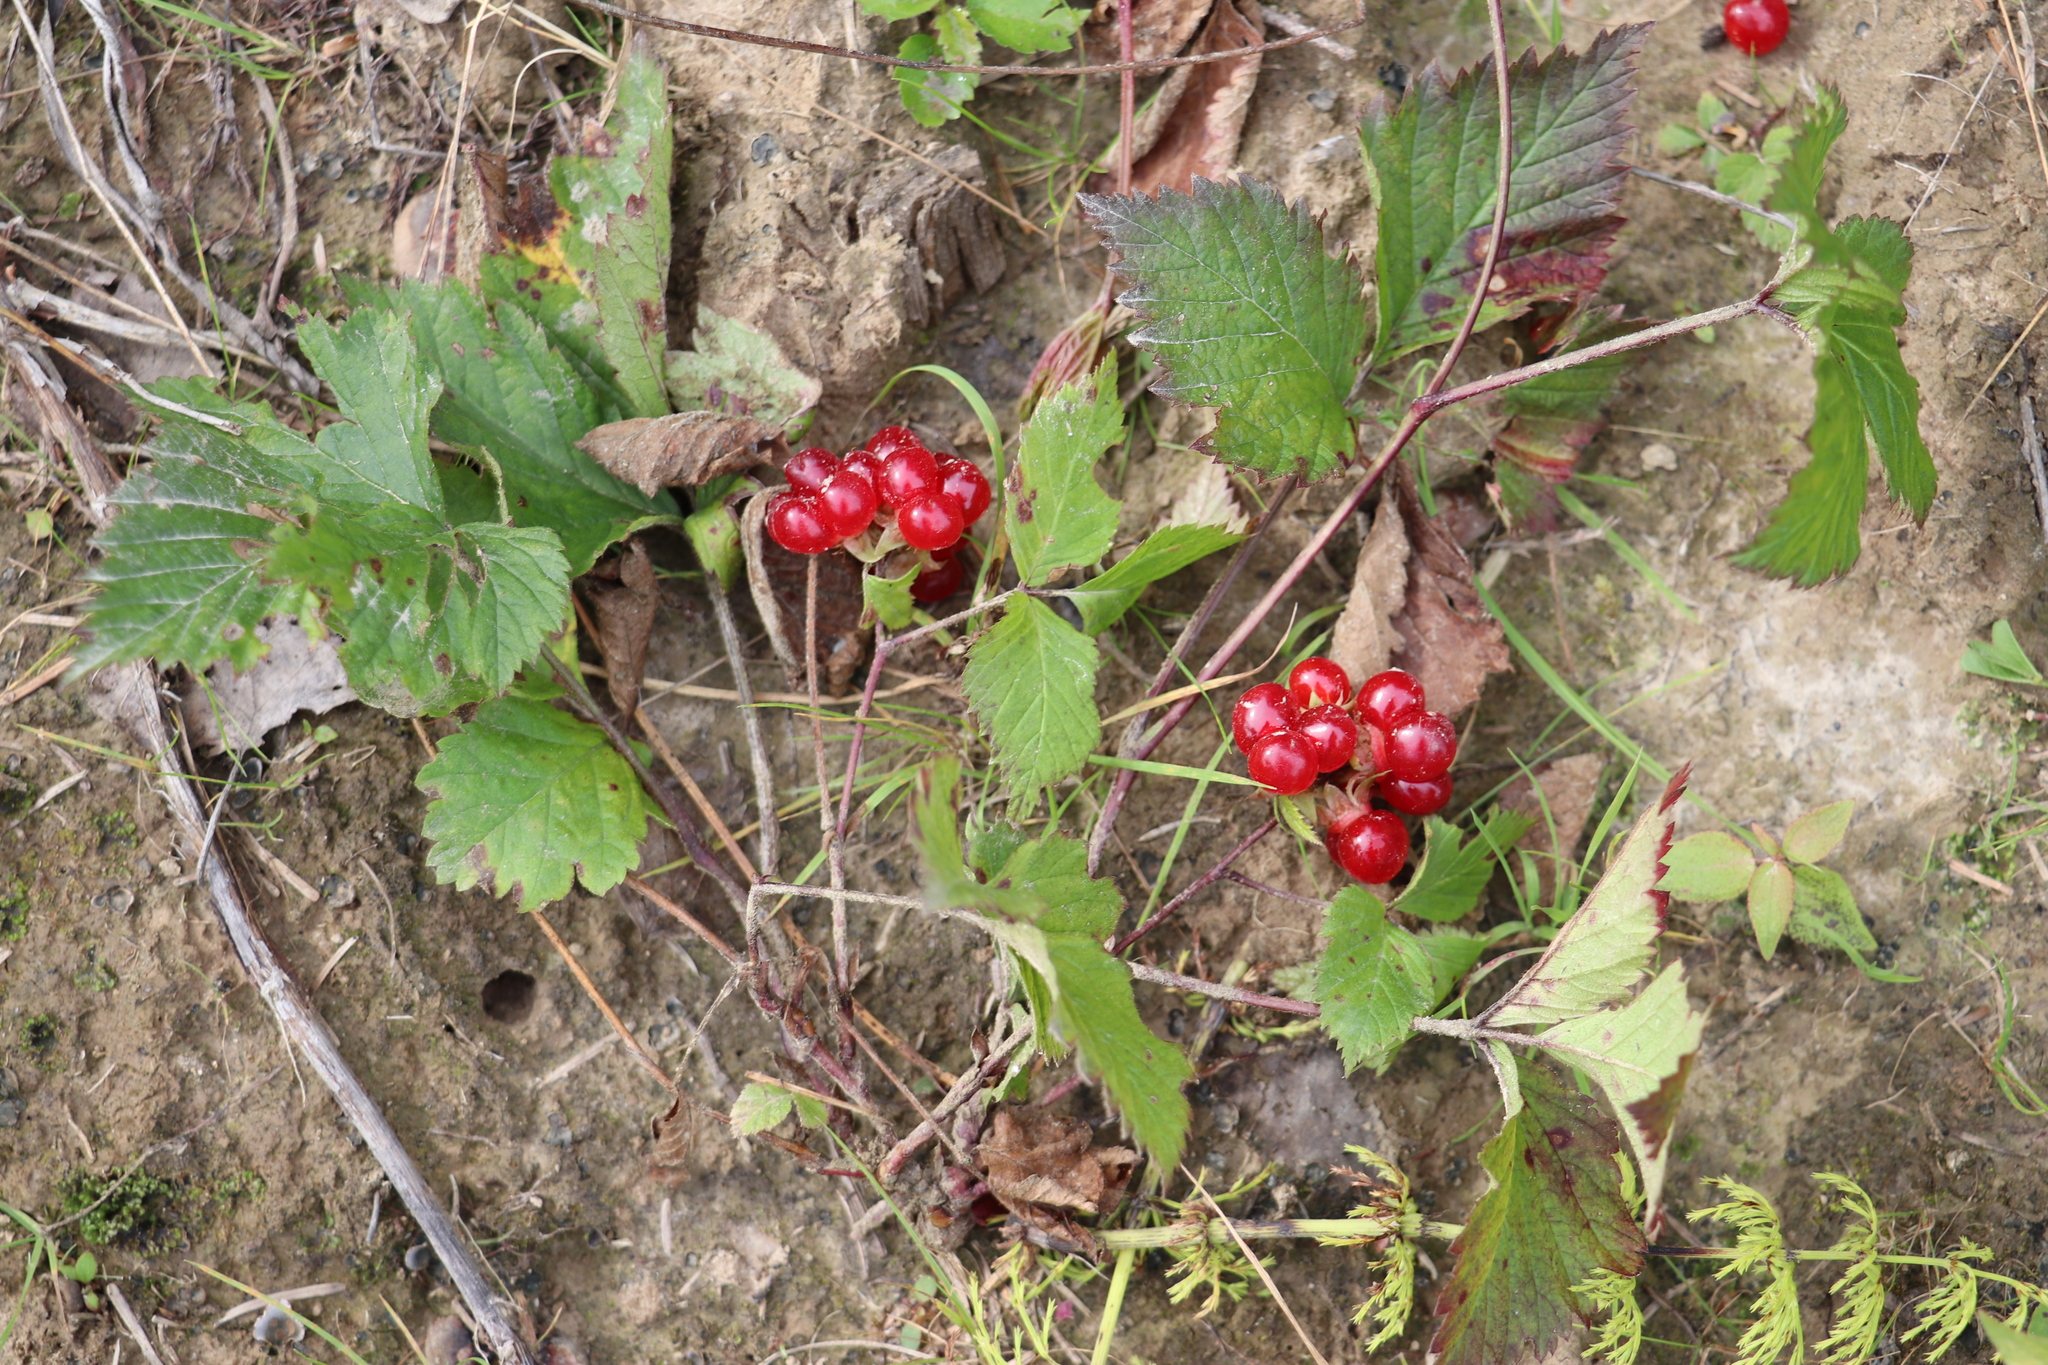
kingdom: Plantae
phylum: Tracheophyta
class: Magnoliopsida
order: Rosales
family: Rosaceae
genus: Rubus
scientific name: Rubus saxatilis
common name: Stone bramble
